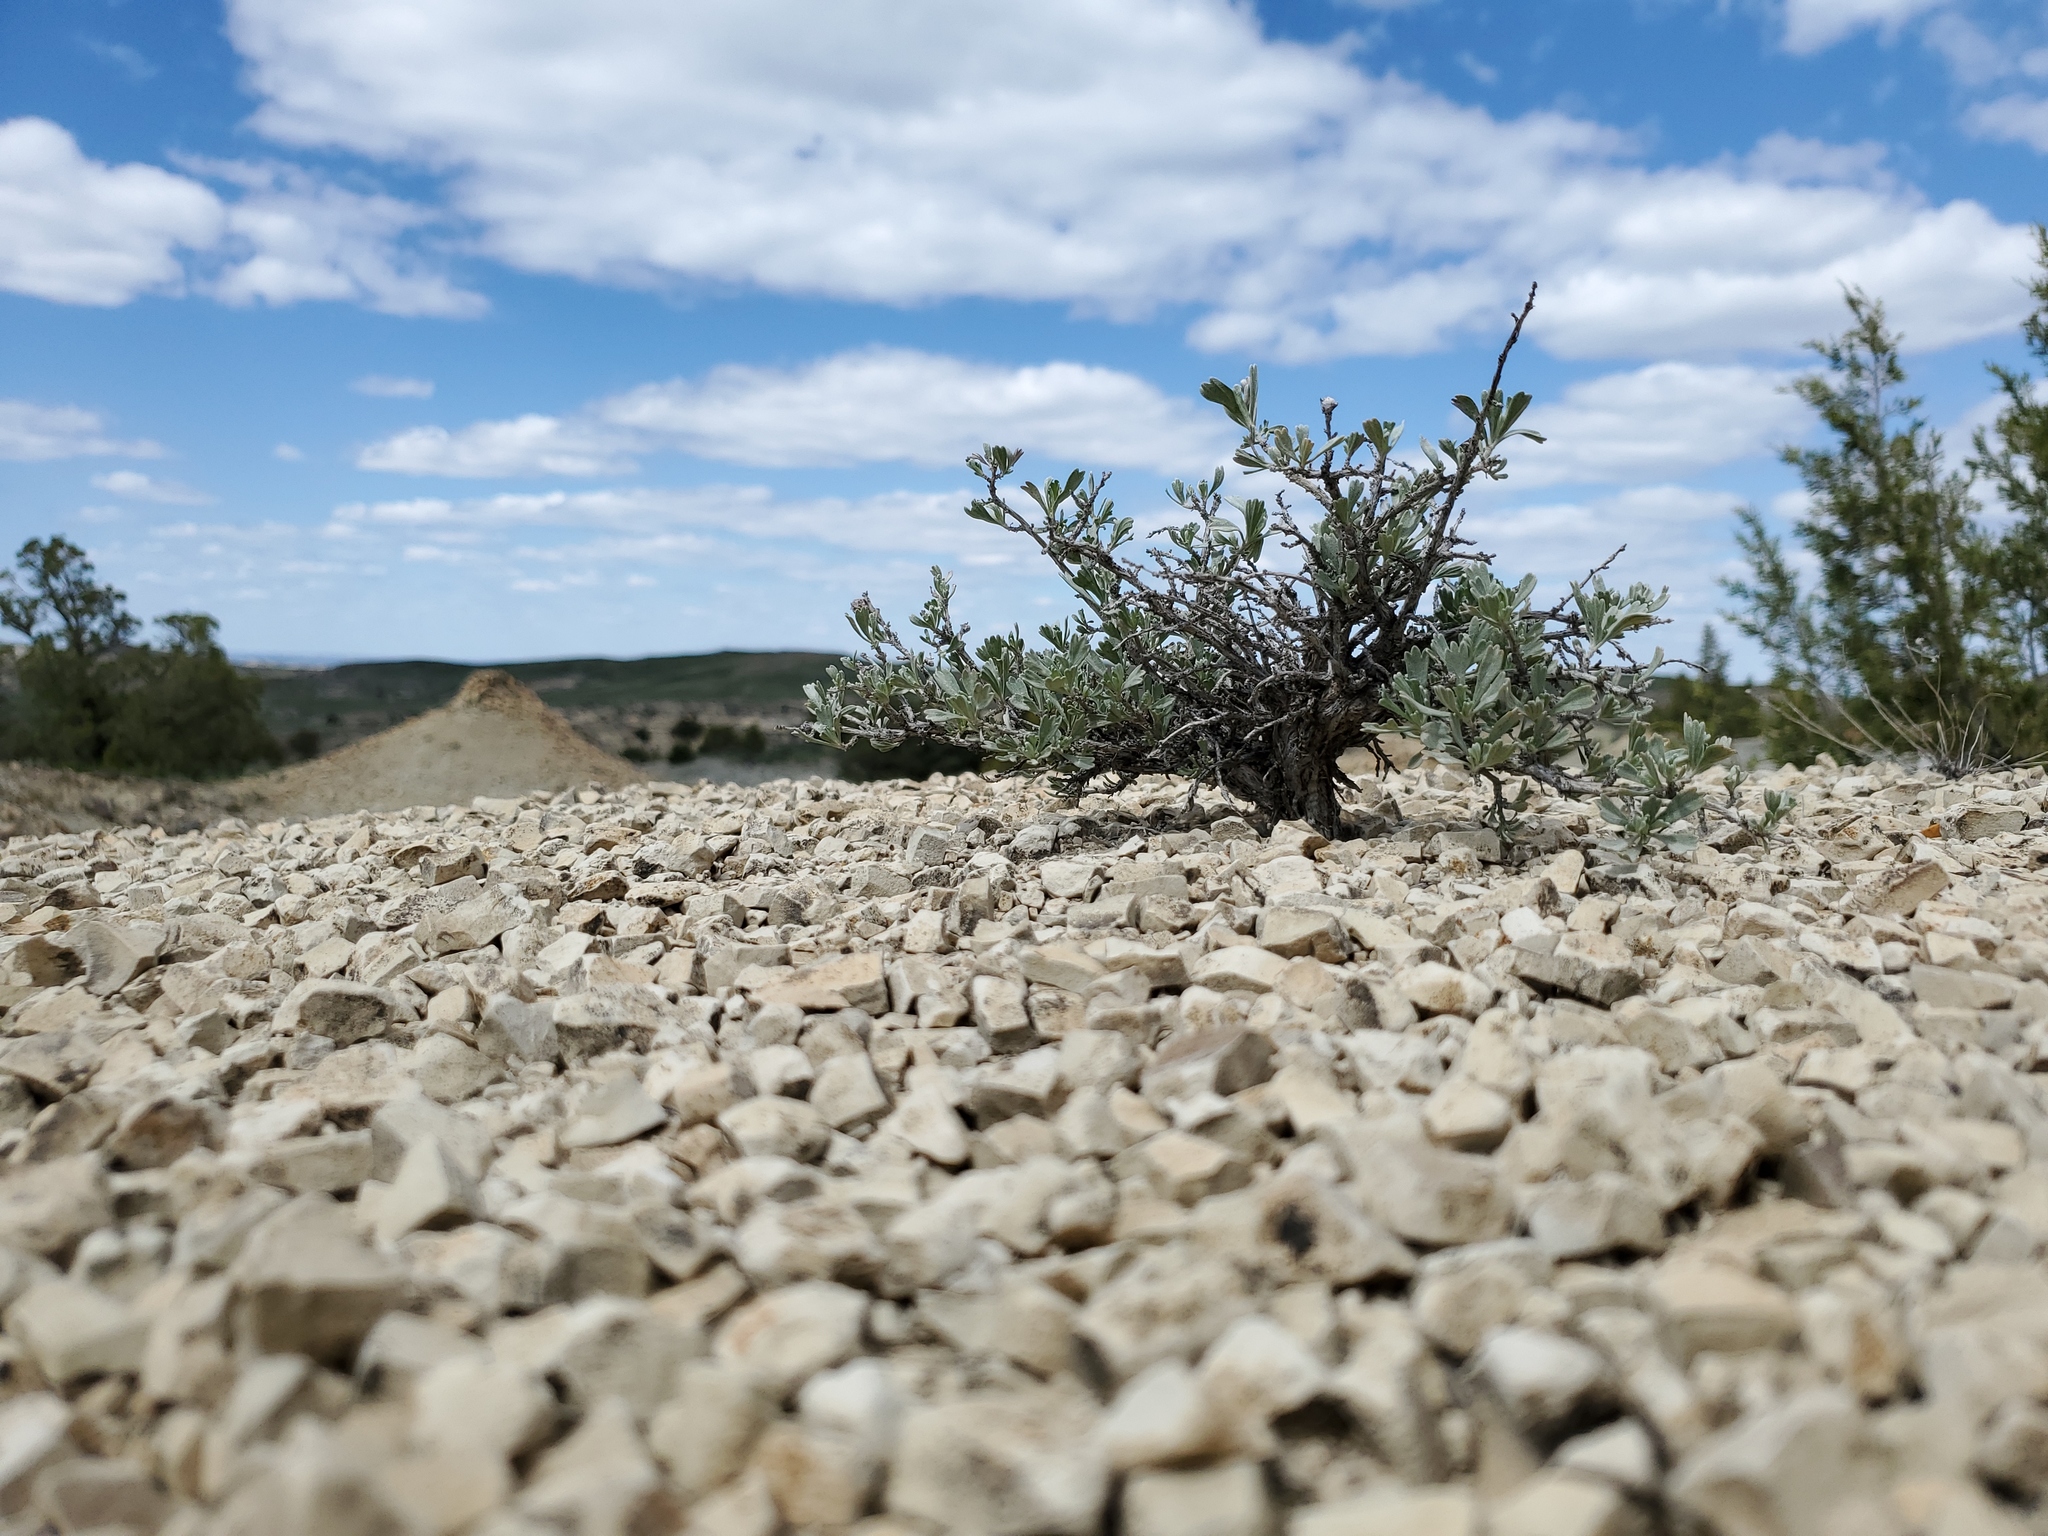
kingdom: Plantae
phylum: Tracheophyta
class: Magnoliopsida
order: Asterales
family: Asteraceae
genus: Artemisia
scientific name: Artemisia tridentata
